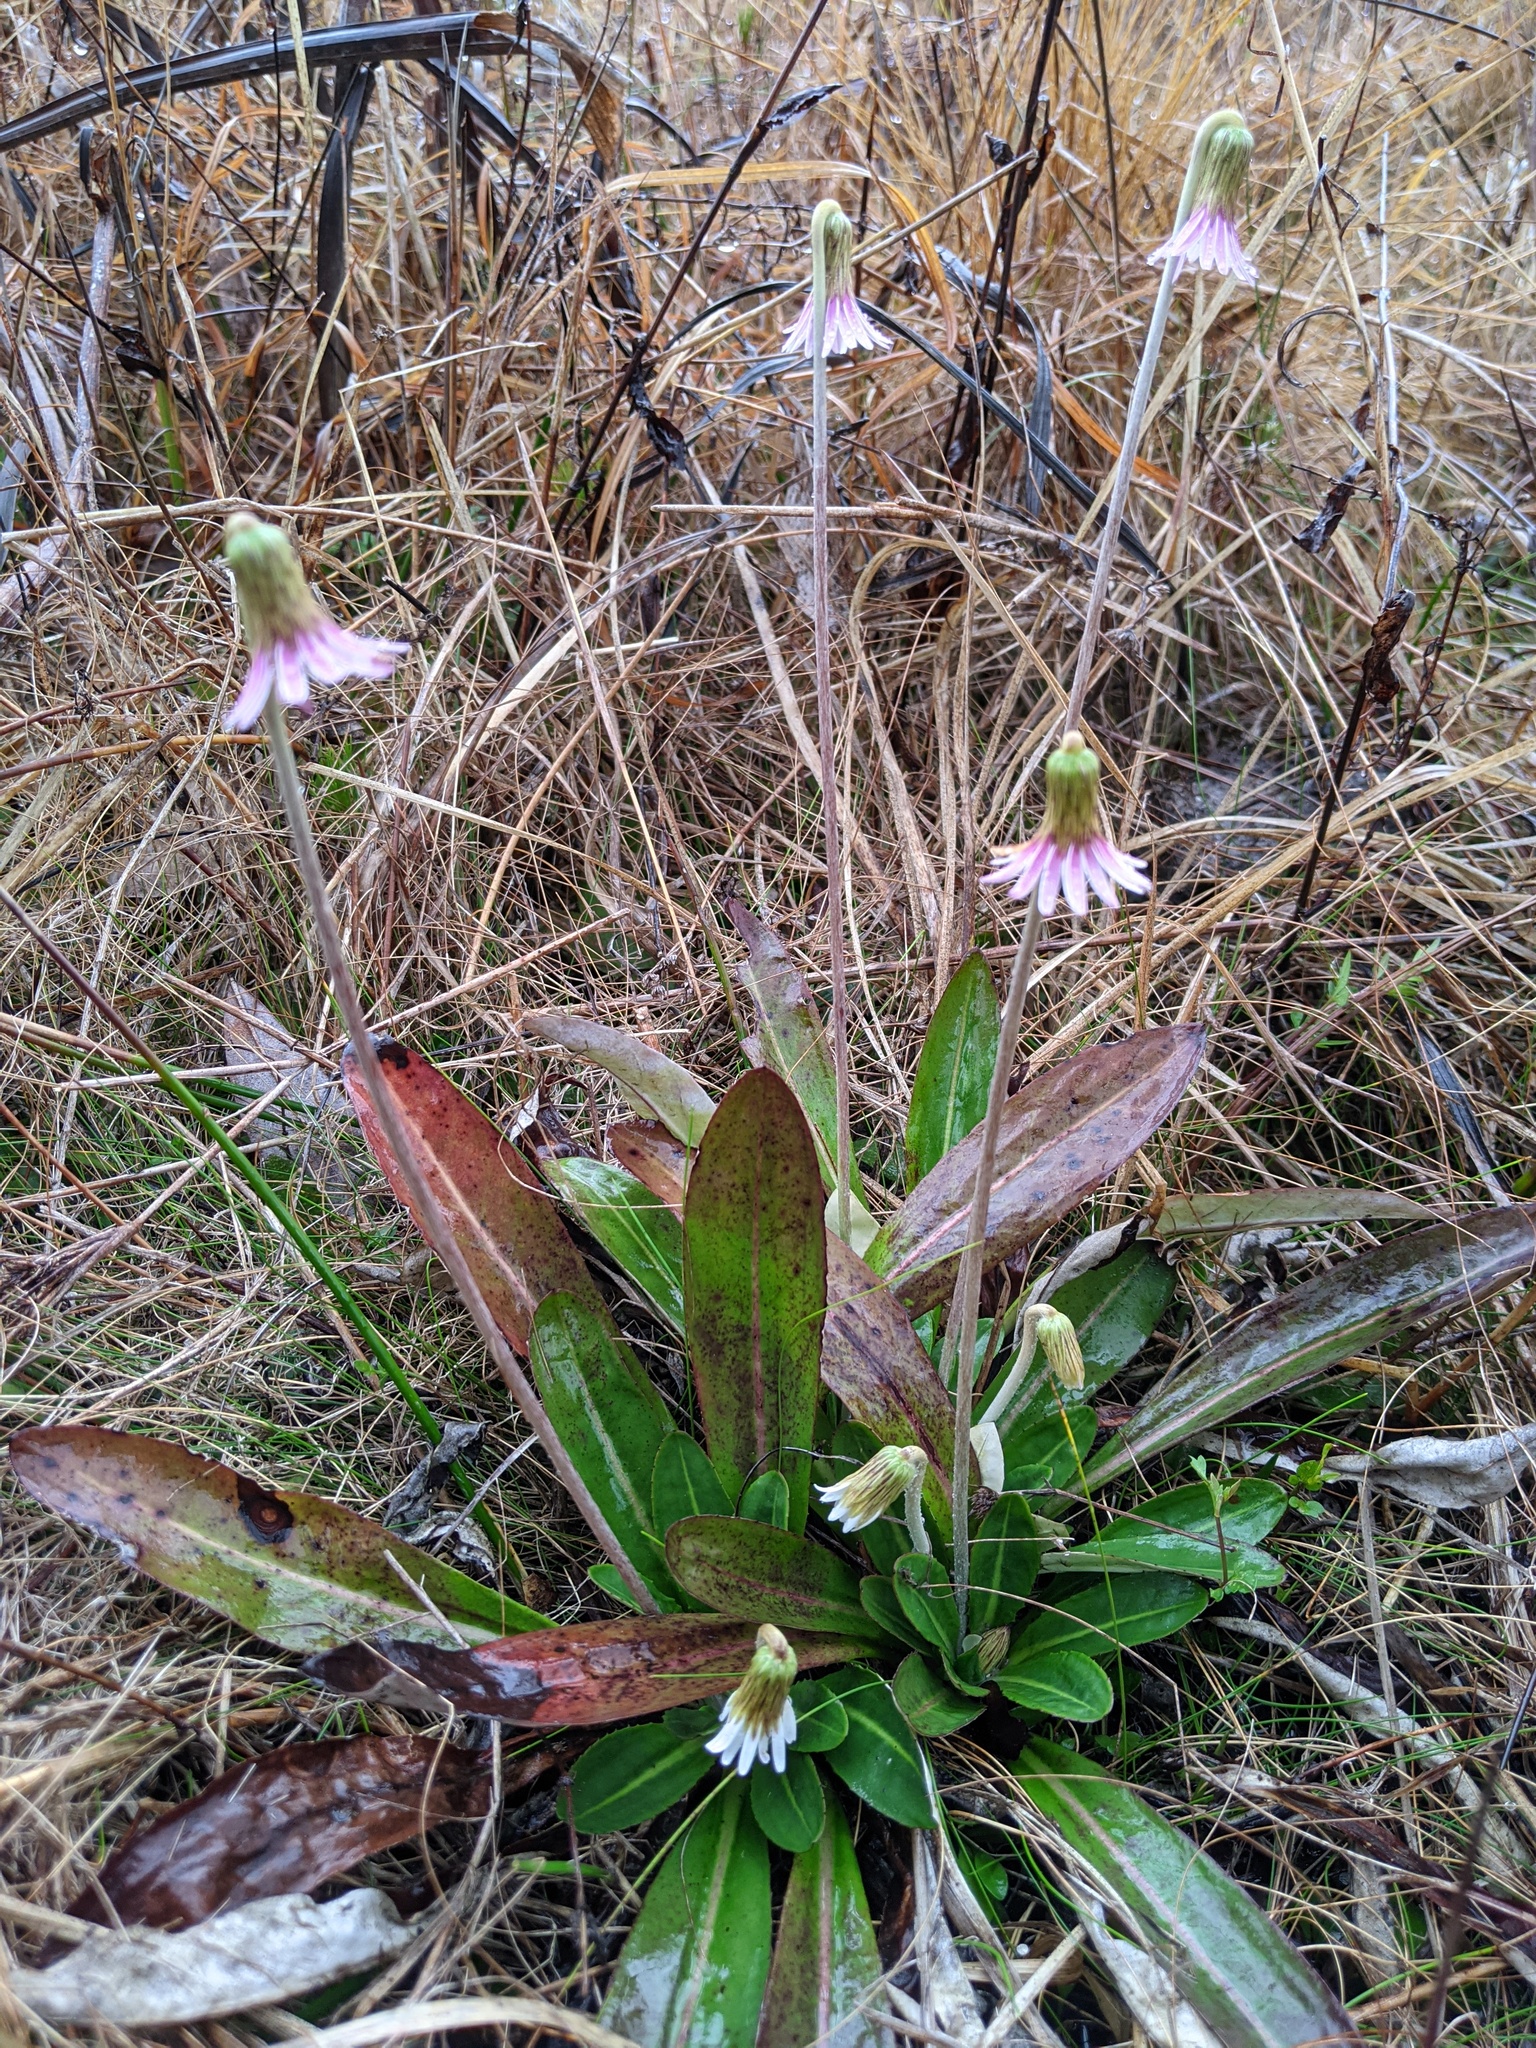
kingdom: Plantae
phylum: Tracheophyta
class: Magnoliopsida
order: Asterales
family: Asteraceae
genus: Chaptalia
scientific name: Chaptalia tomentosa
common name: Woolly sunbonnet
